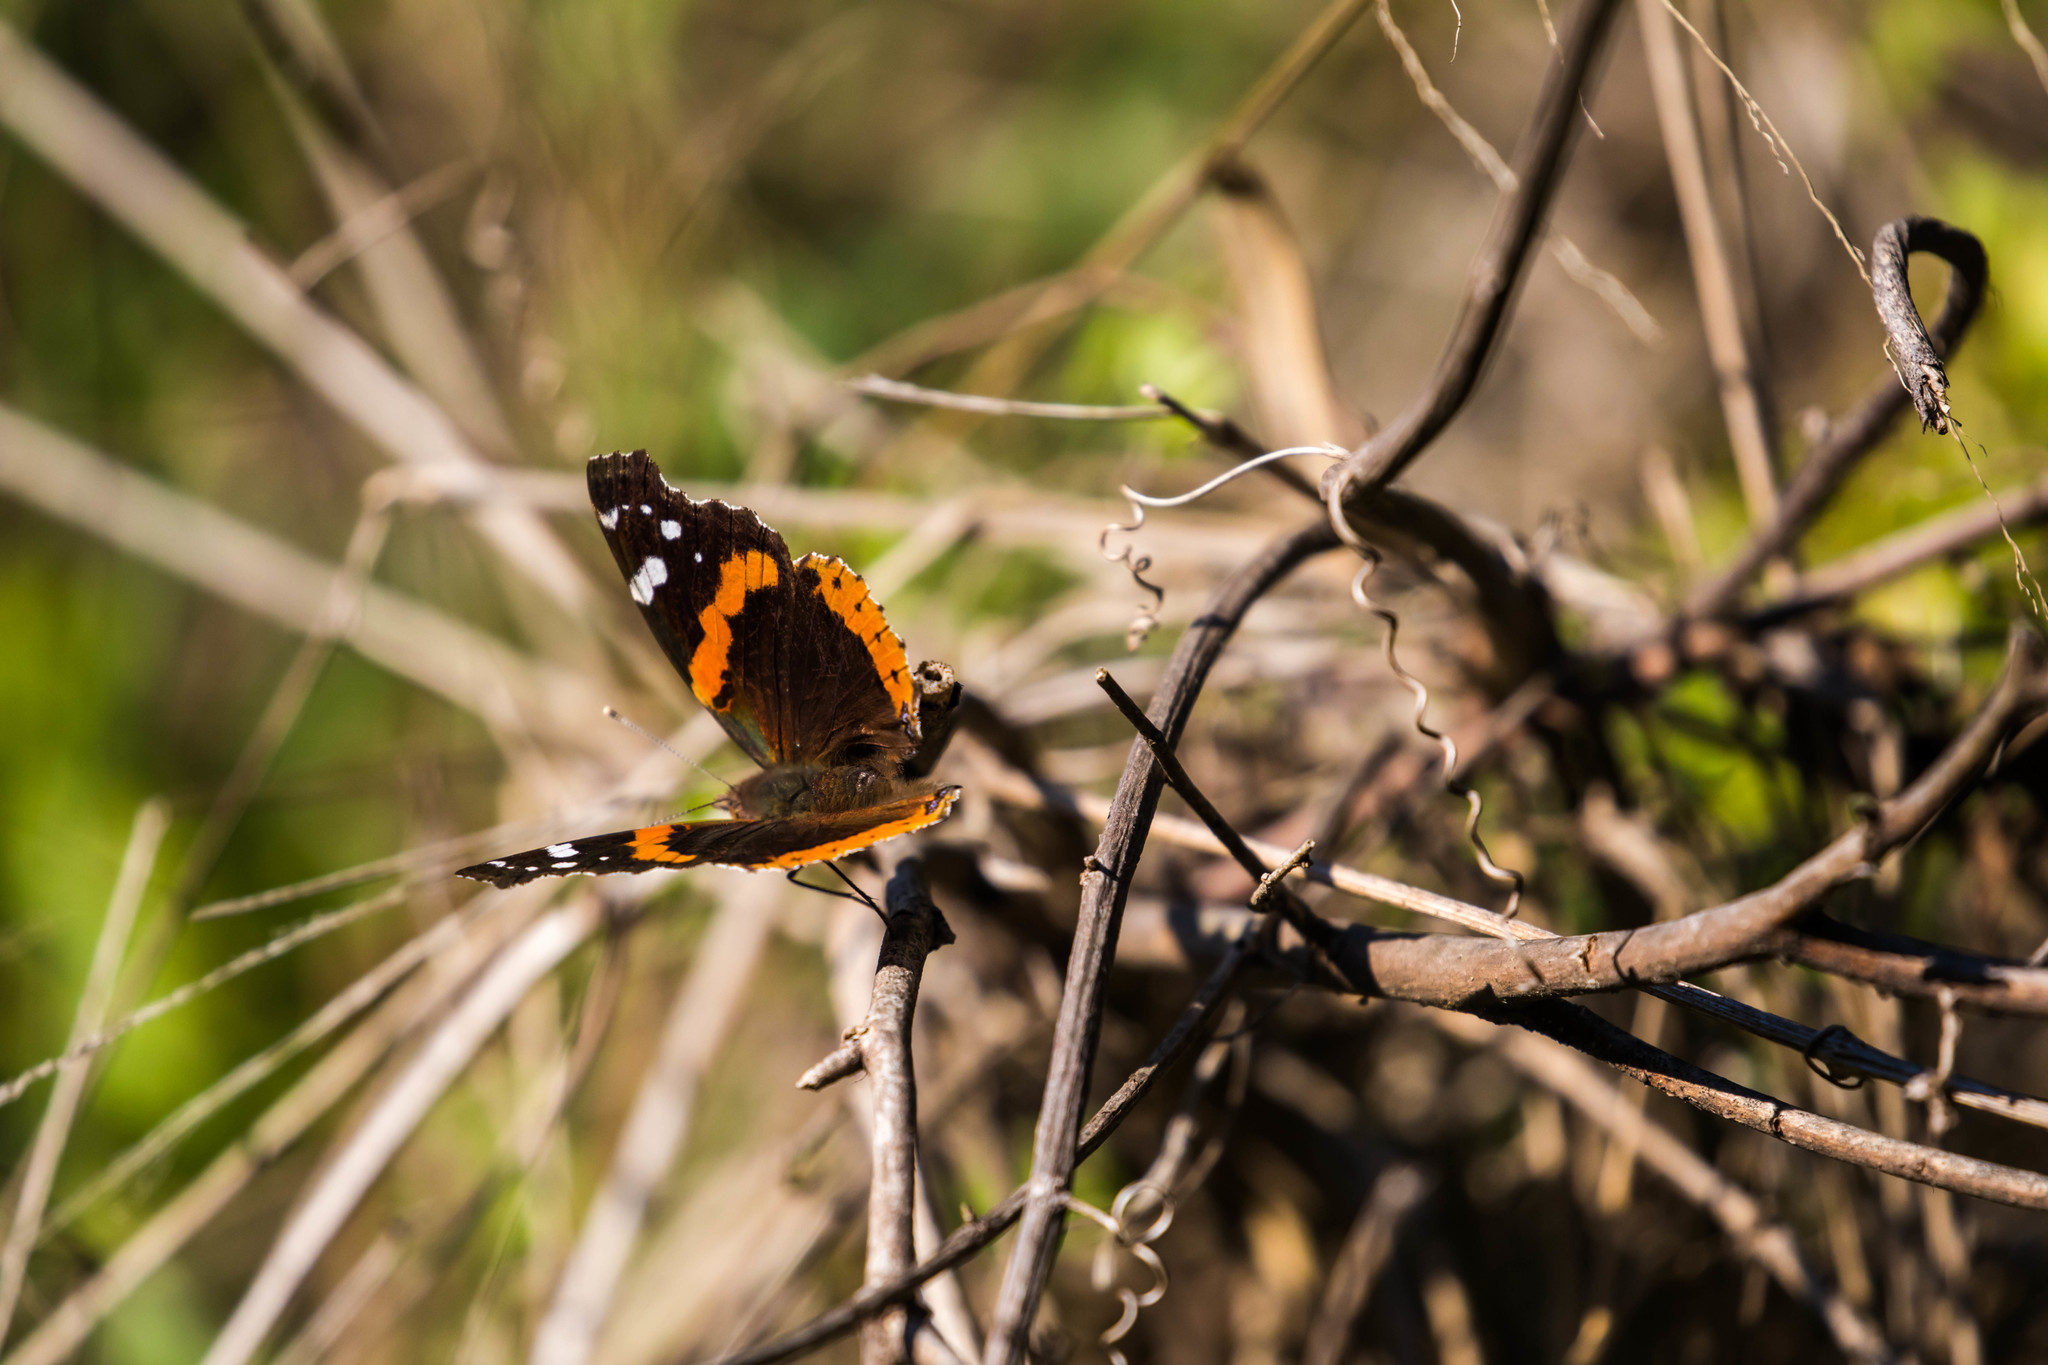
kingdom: Animalia
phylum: Arthropoda
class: Insecta
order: Lepidoptera
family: Nymphalidae
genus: Vanessa
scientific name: Vanessa atalanta
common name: Red admiral
